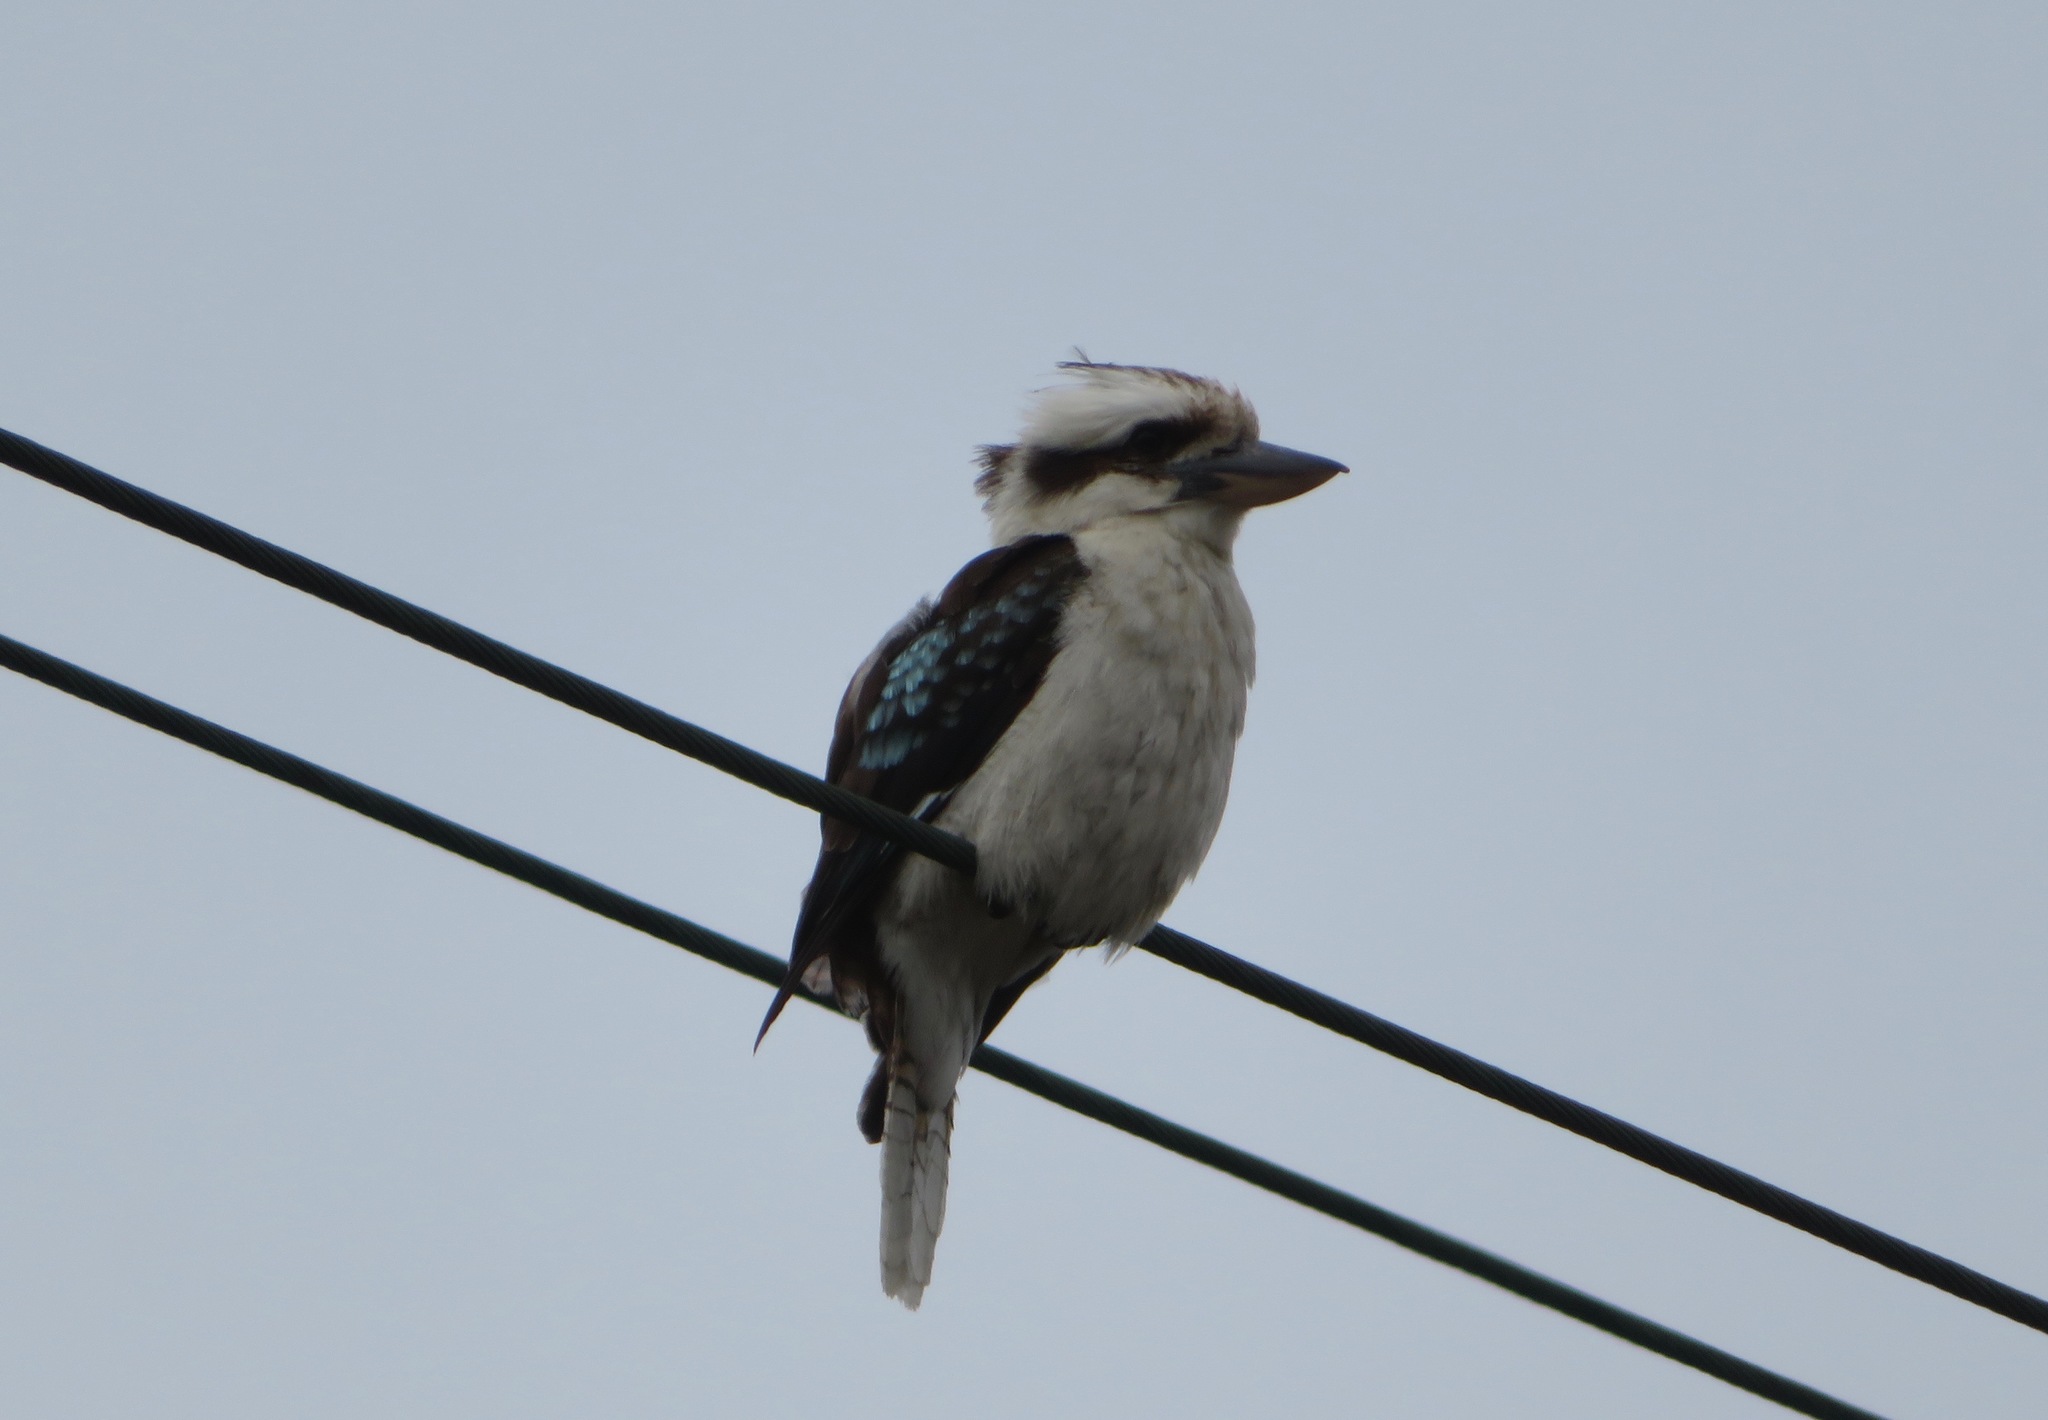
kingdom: Animalia
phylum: Chordata
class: Aves
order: Coraciiformes
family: Alcedinidae
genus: Dacelo
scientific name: Dacelo novaeguineae
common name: Laughing kookaburra
